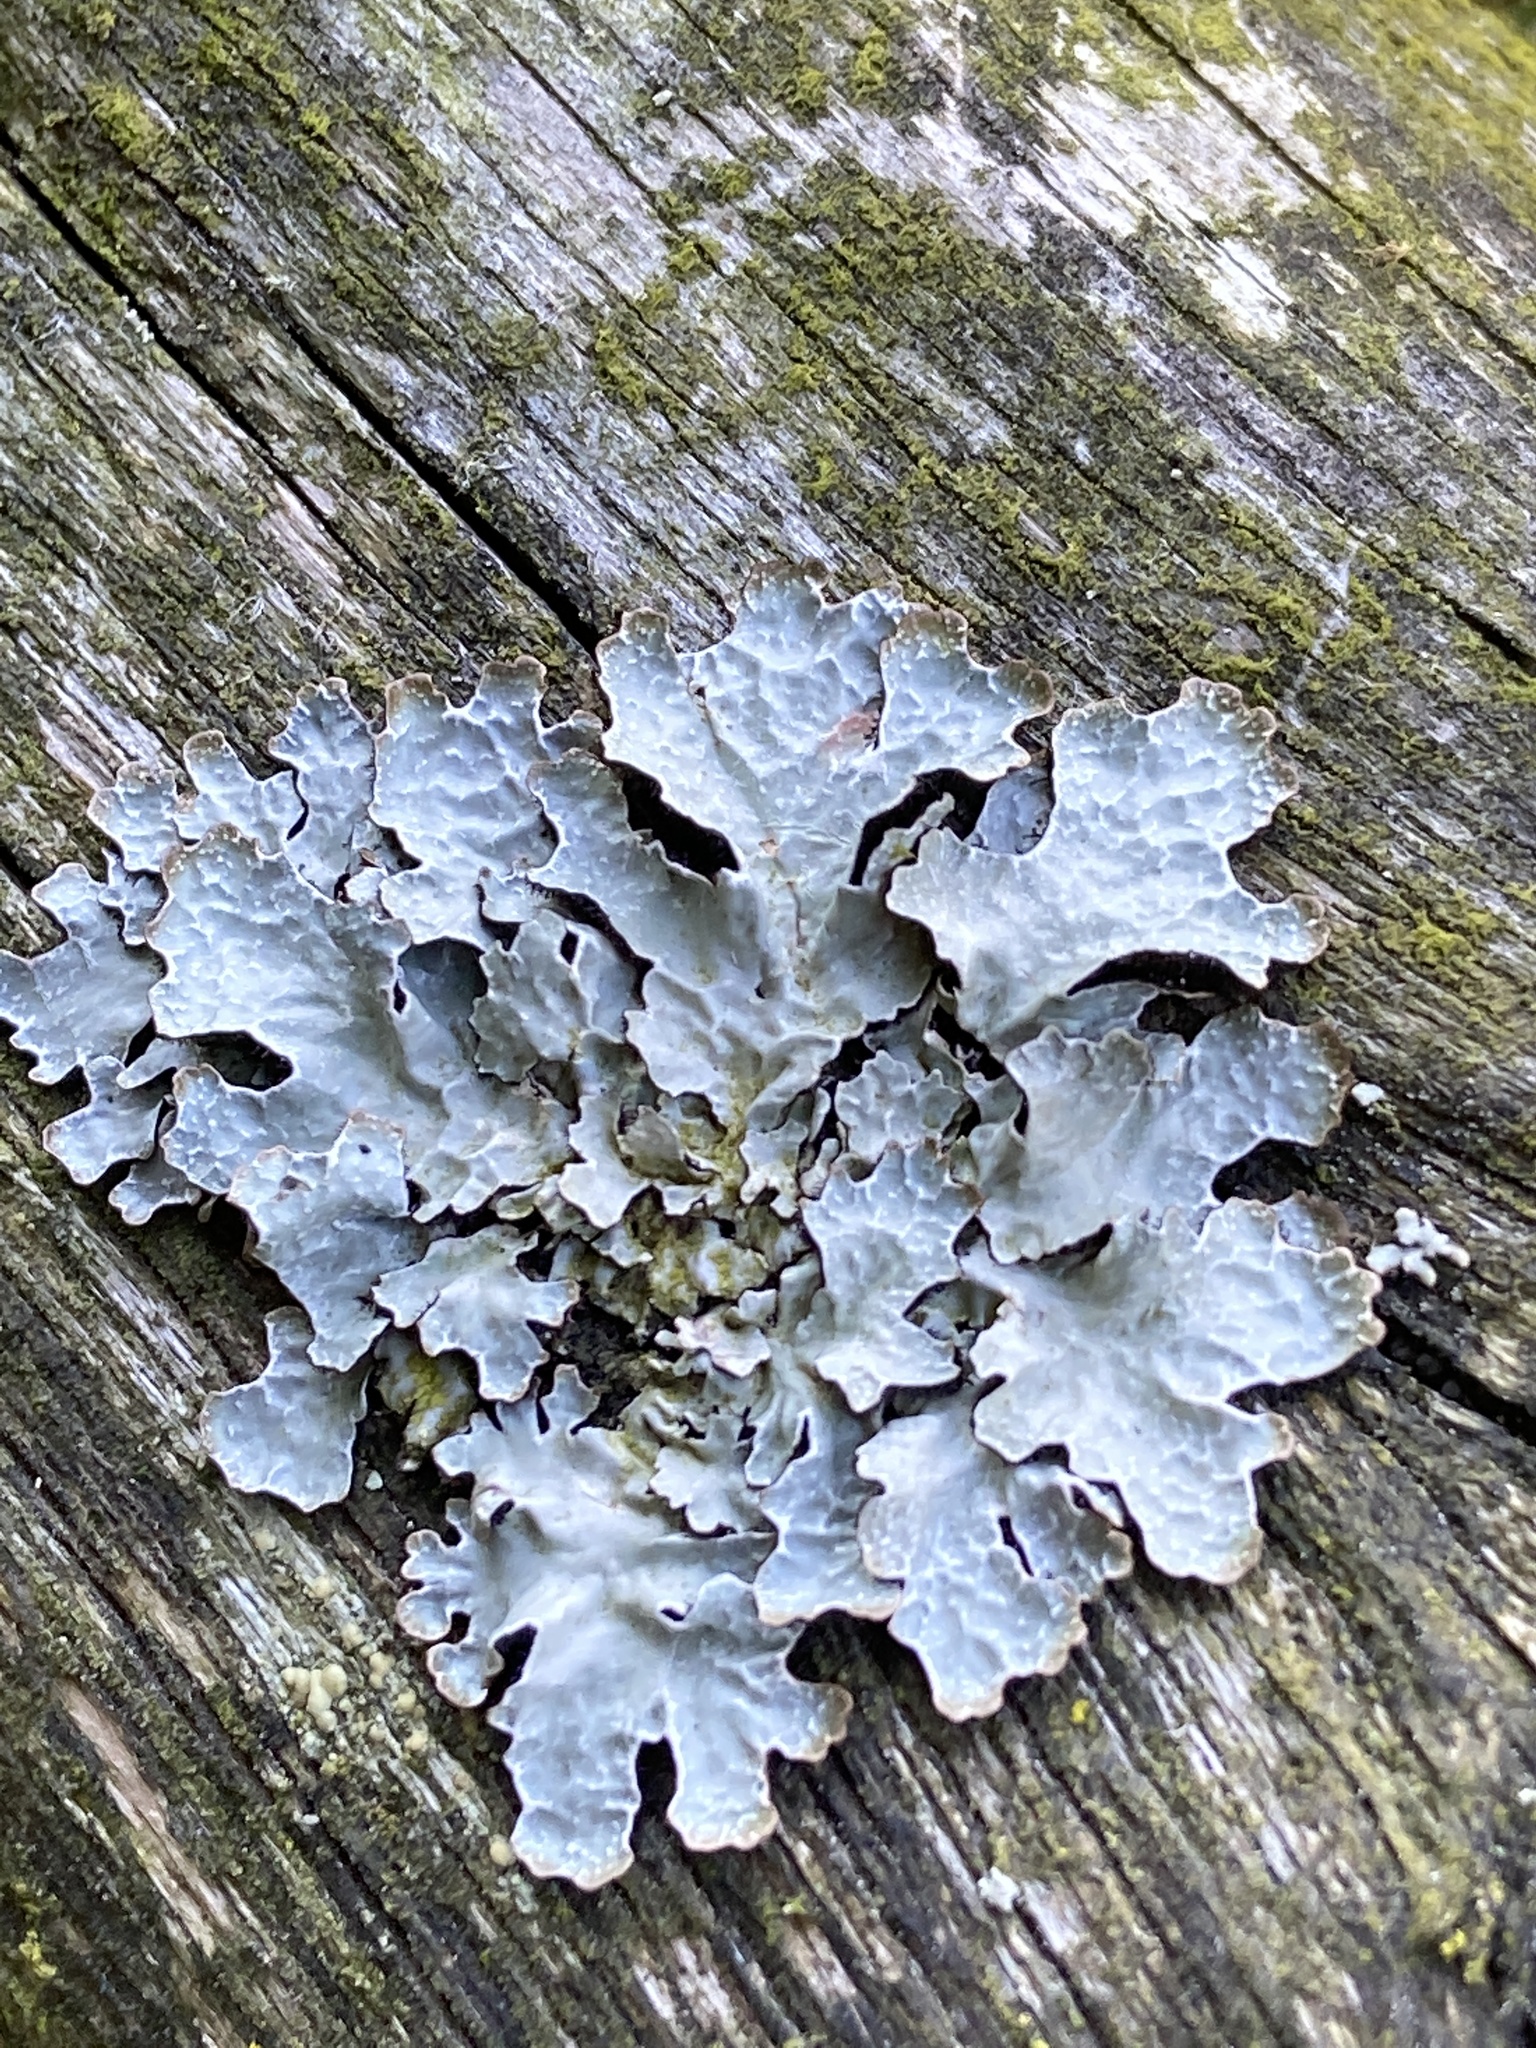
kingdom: Fungi
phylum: Ascomycota
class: Lecanoromycetes
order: Lecanorales
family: Parmeliaceae
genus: Parmelia
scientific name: Parmelia sulcata
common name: Netted shield lichen
